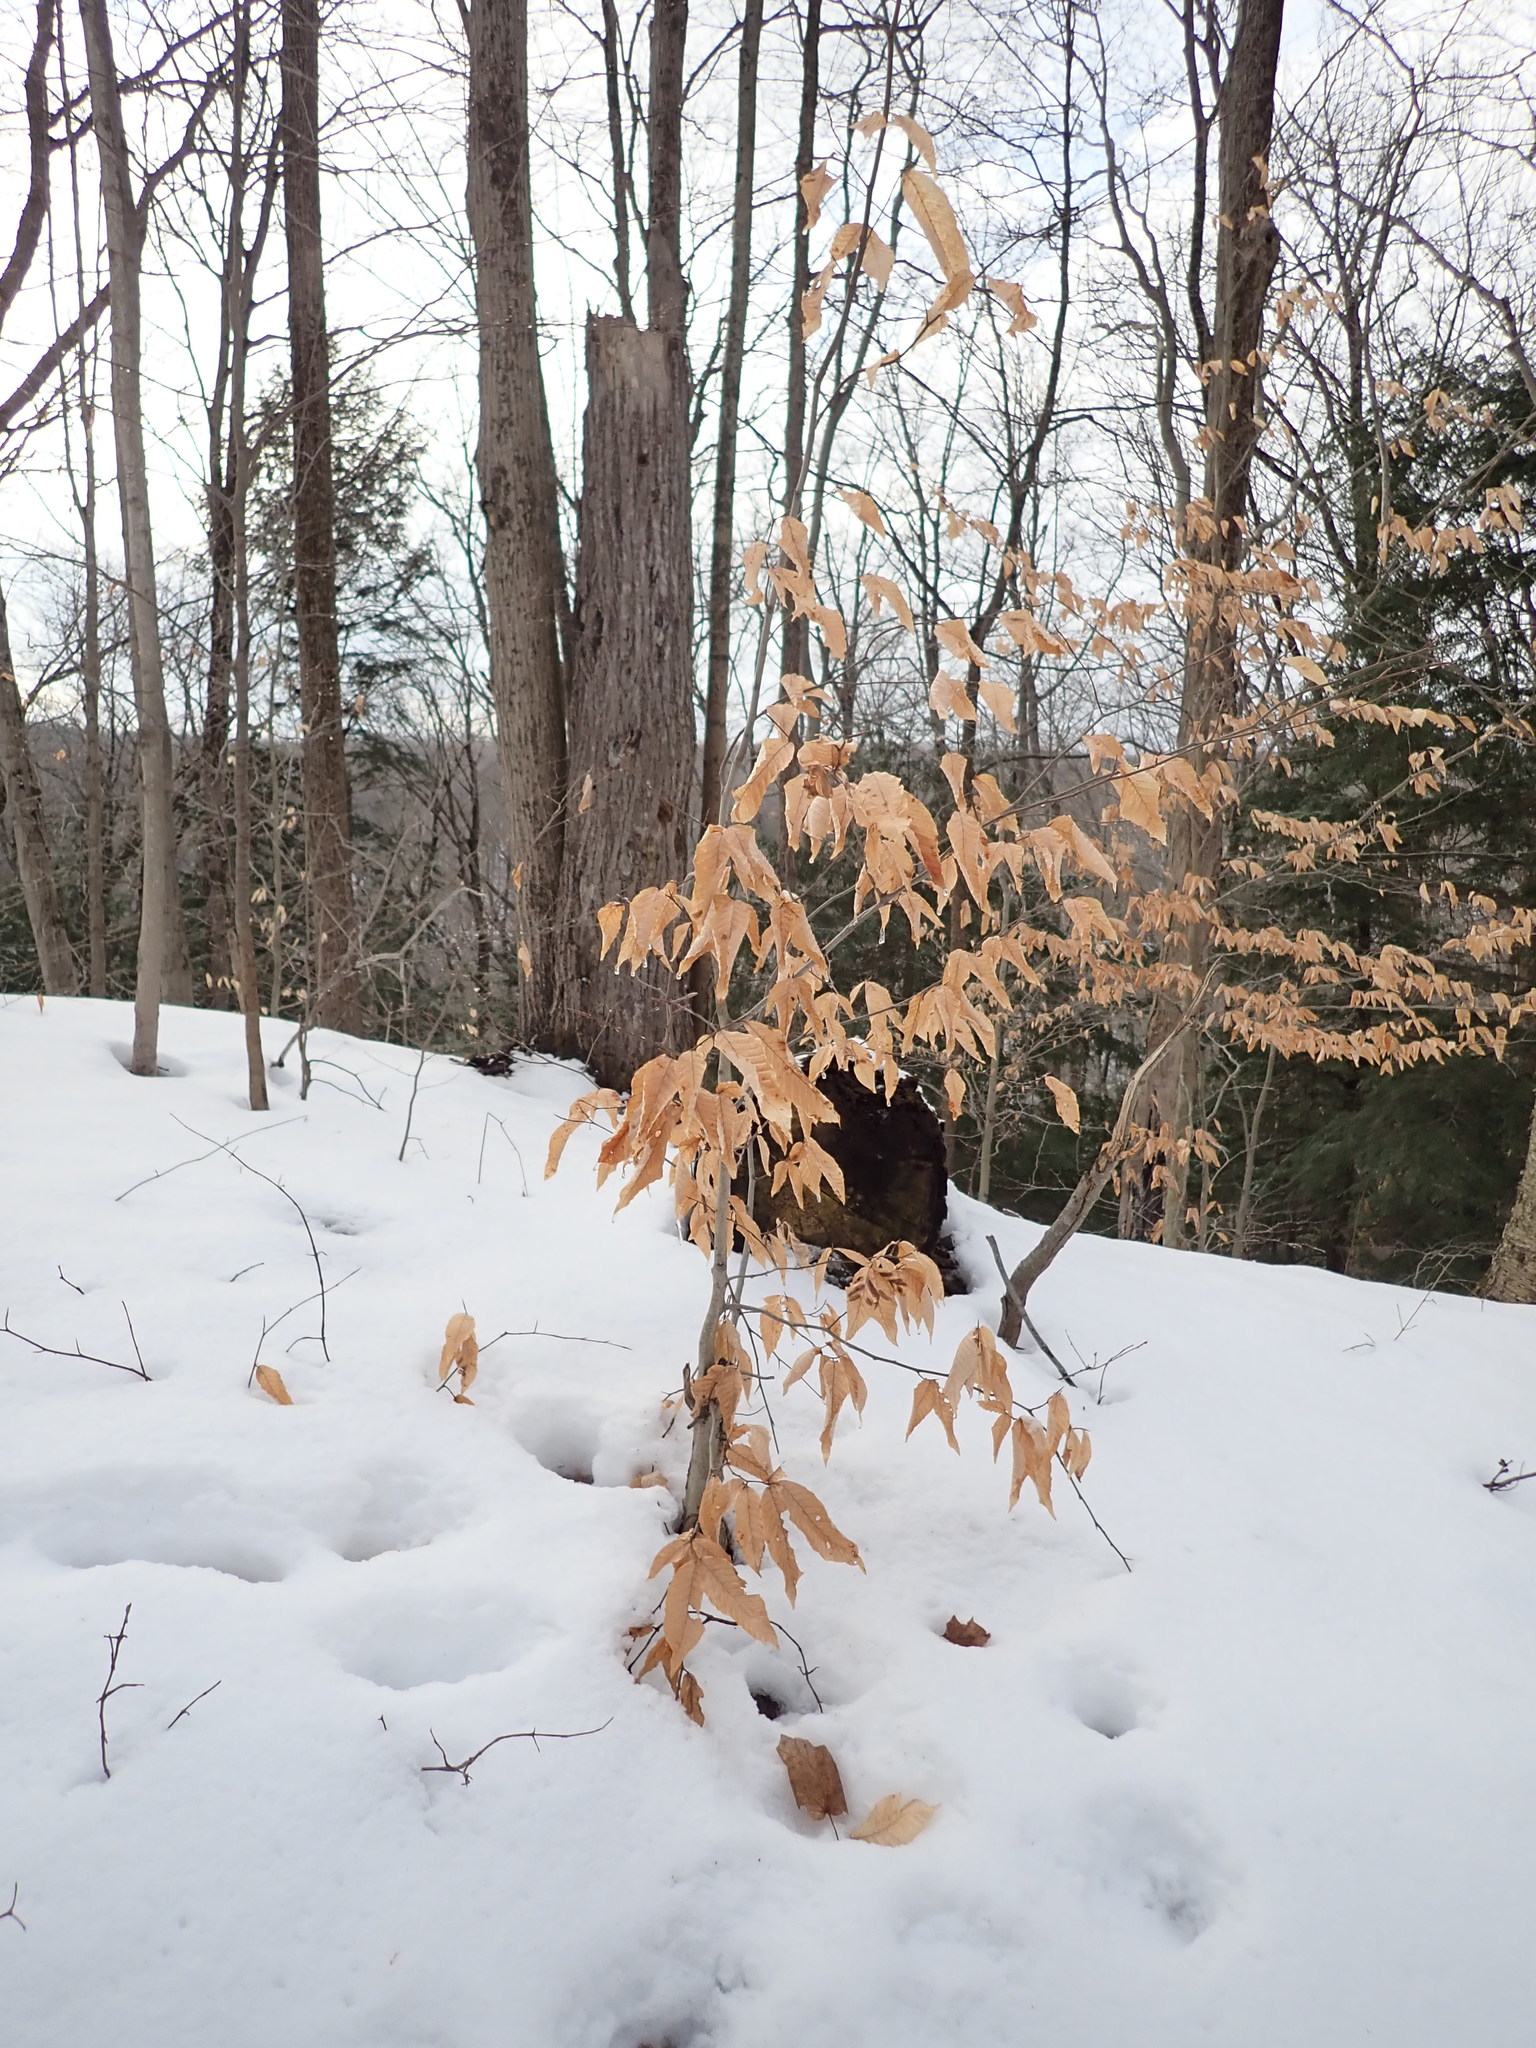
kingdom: Plantae
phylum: Tracheophyta
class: Magnoliopsida
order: Fagales
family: Fagaceae
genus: Fagus
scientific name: Fagus grandifolia
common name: American beech
